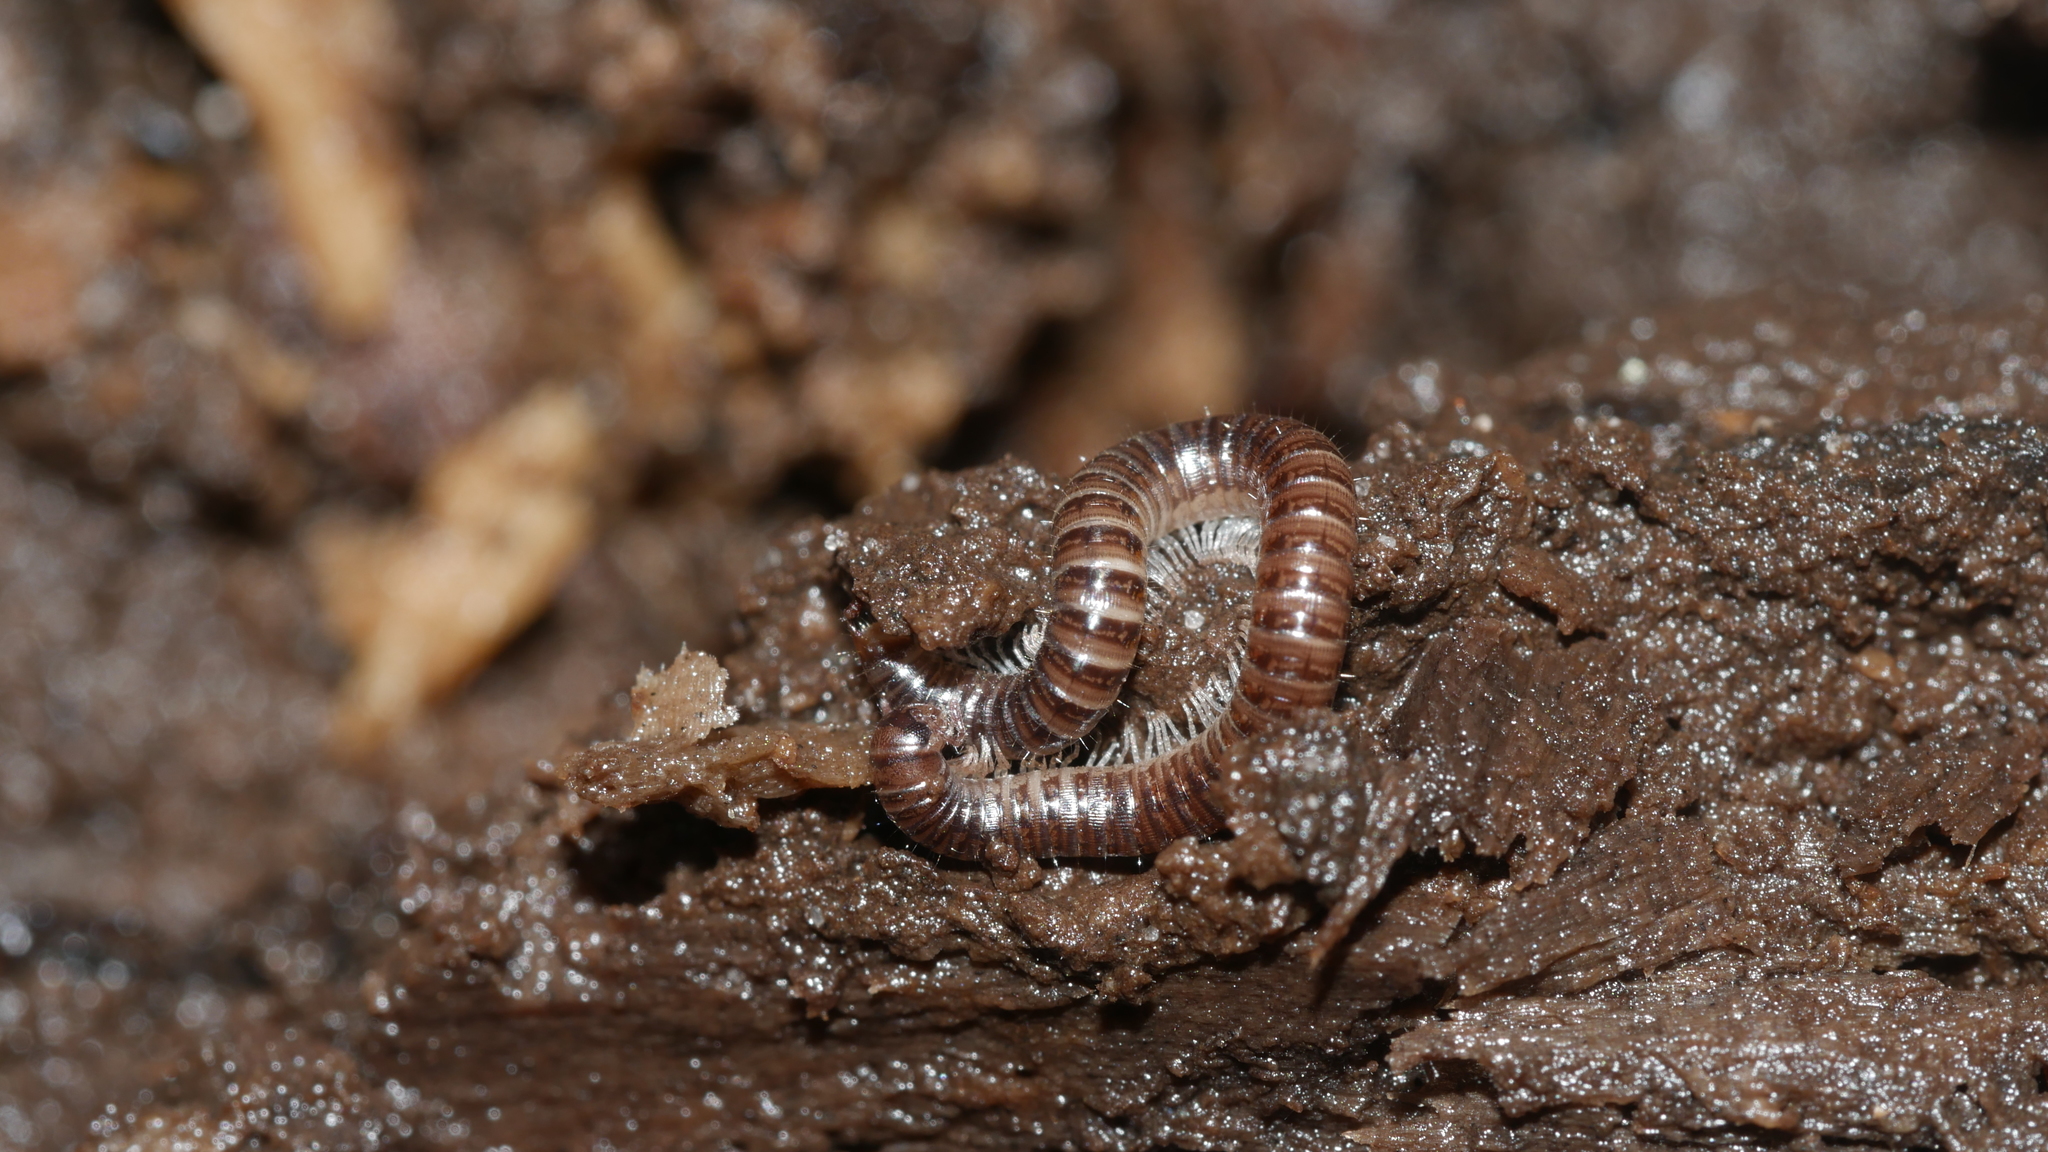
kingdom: Animalia
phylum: Arthropoda
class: Diplopoda
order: Julida
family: Julidae
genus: Ophyiulus
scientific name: Ophyiulus pilosus
